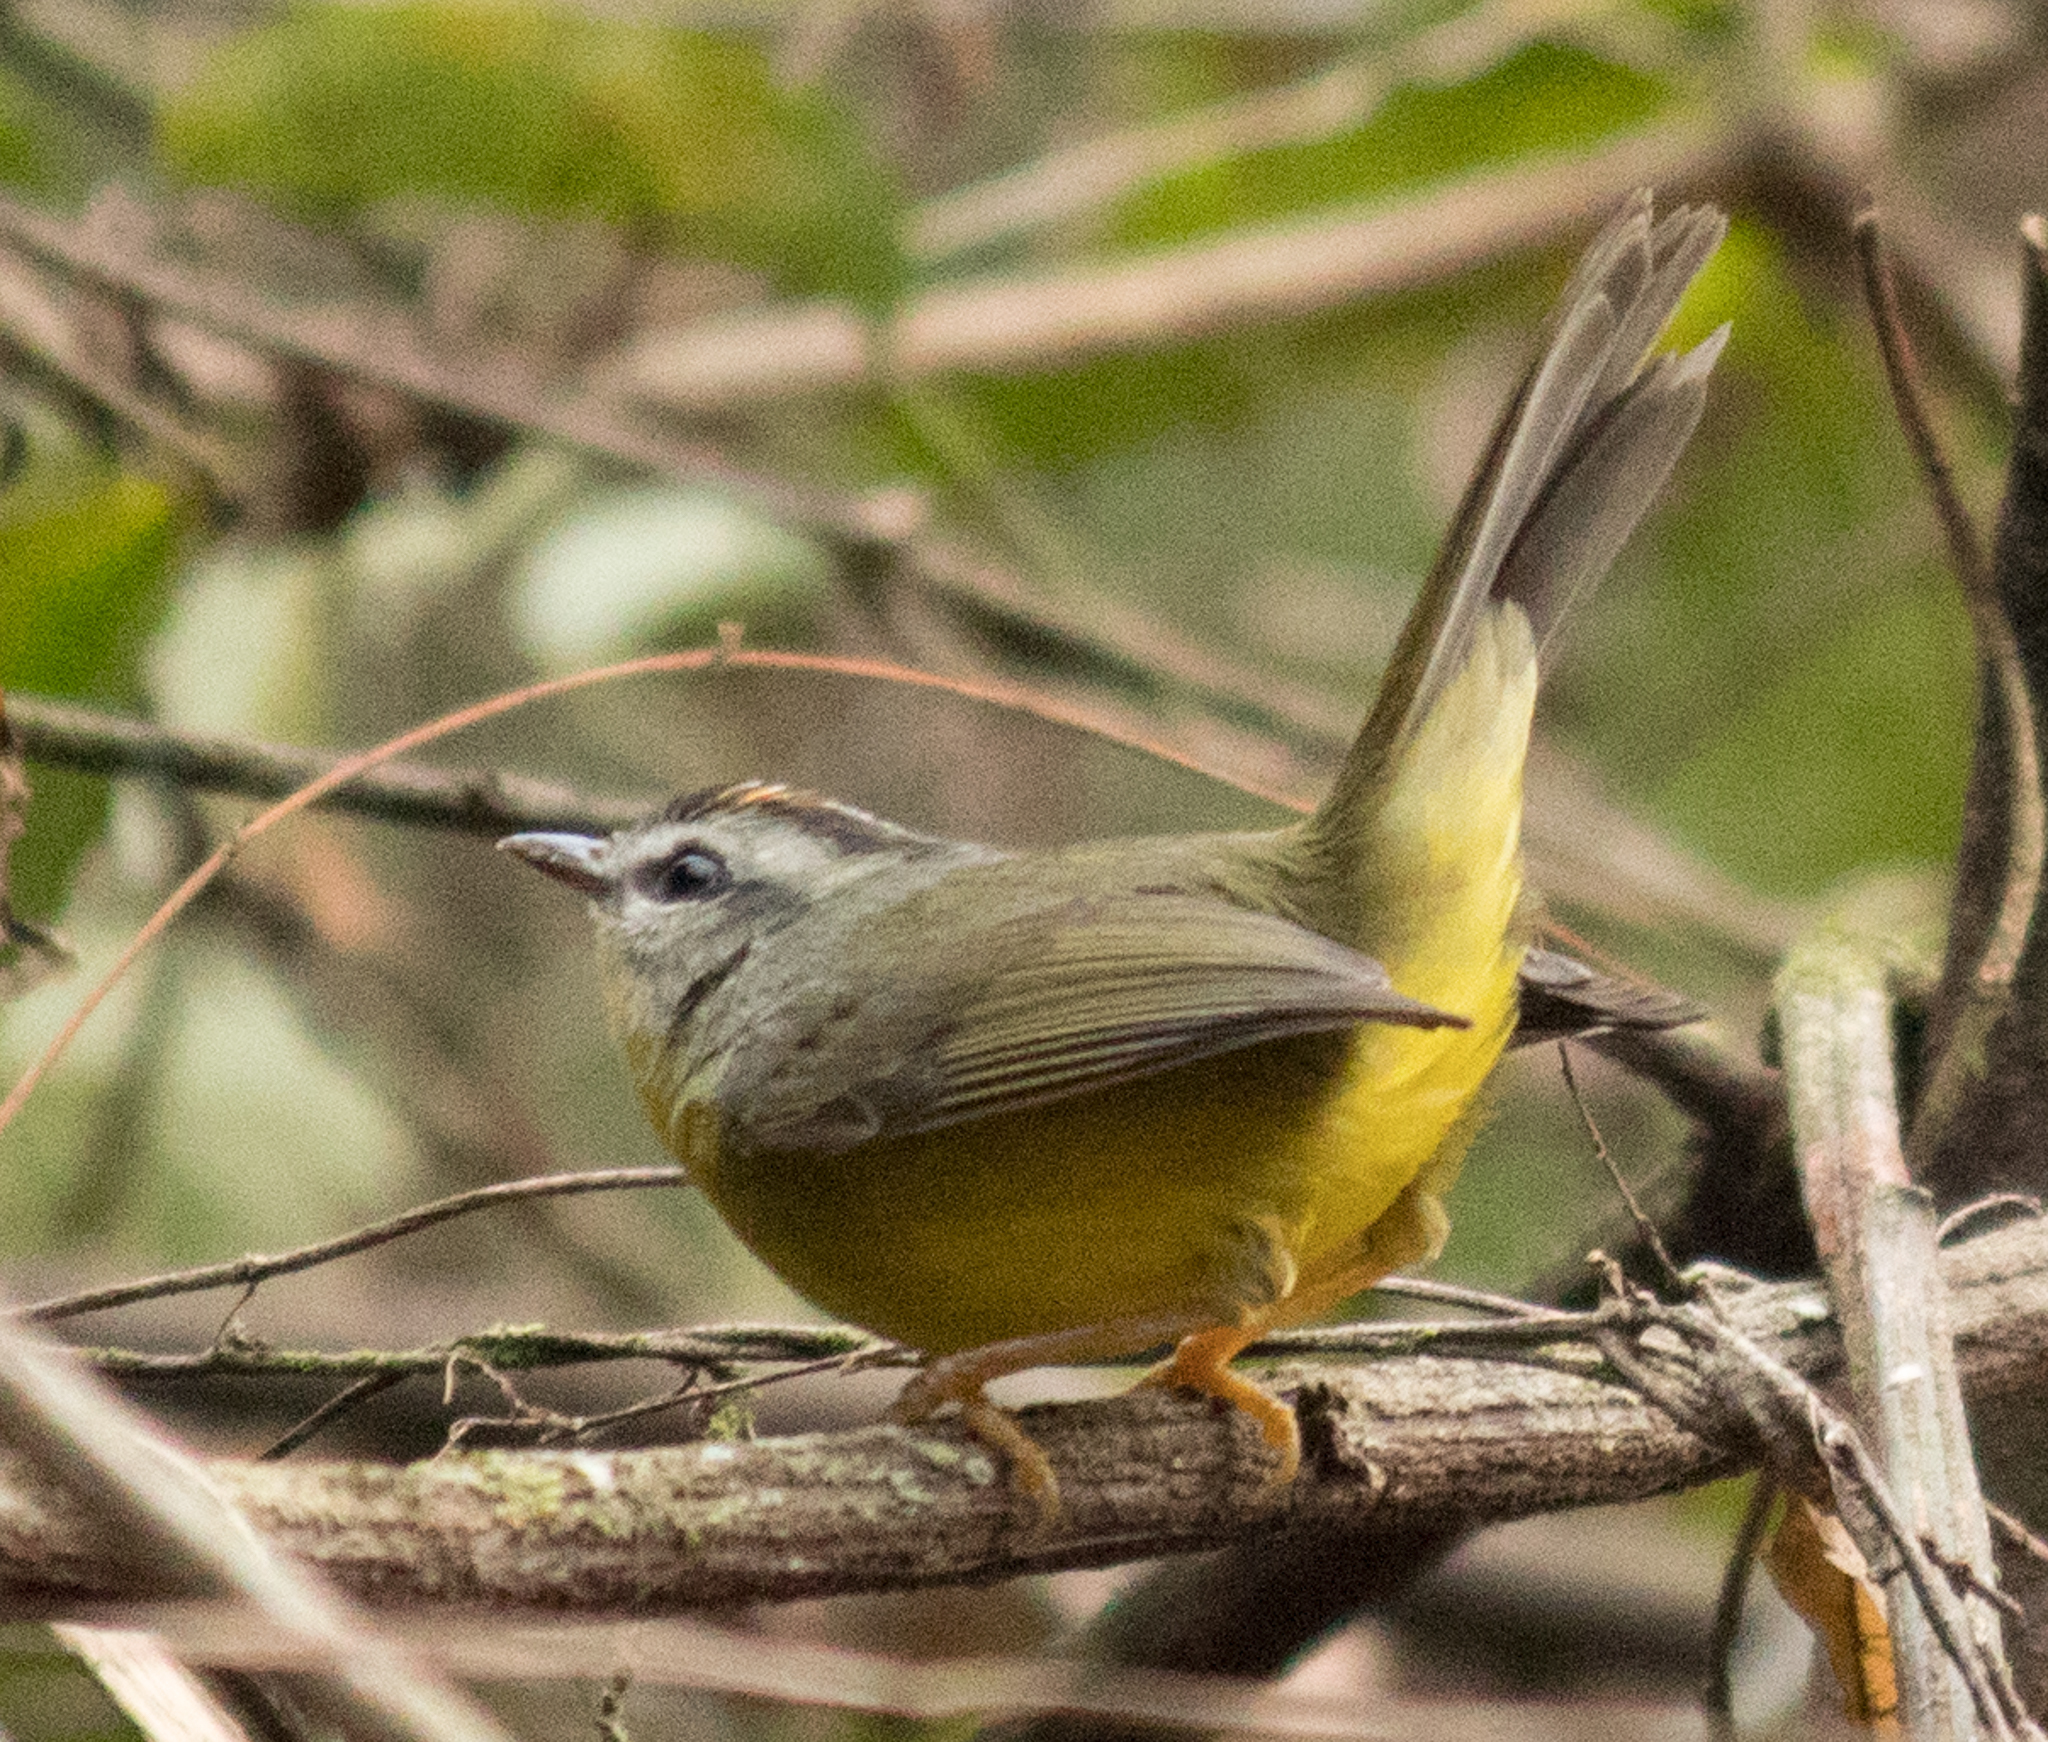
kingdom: Animalia
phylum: Chordata
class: Aves
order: Passeriformes
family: Parulidae
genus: Basileuterus
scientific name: Basileuterus culicivorus
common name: Golden-crowned warbler
